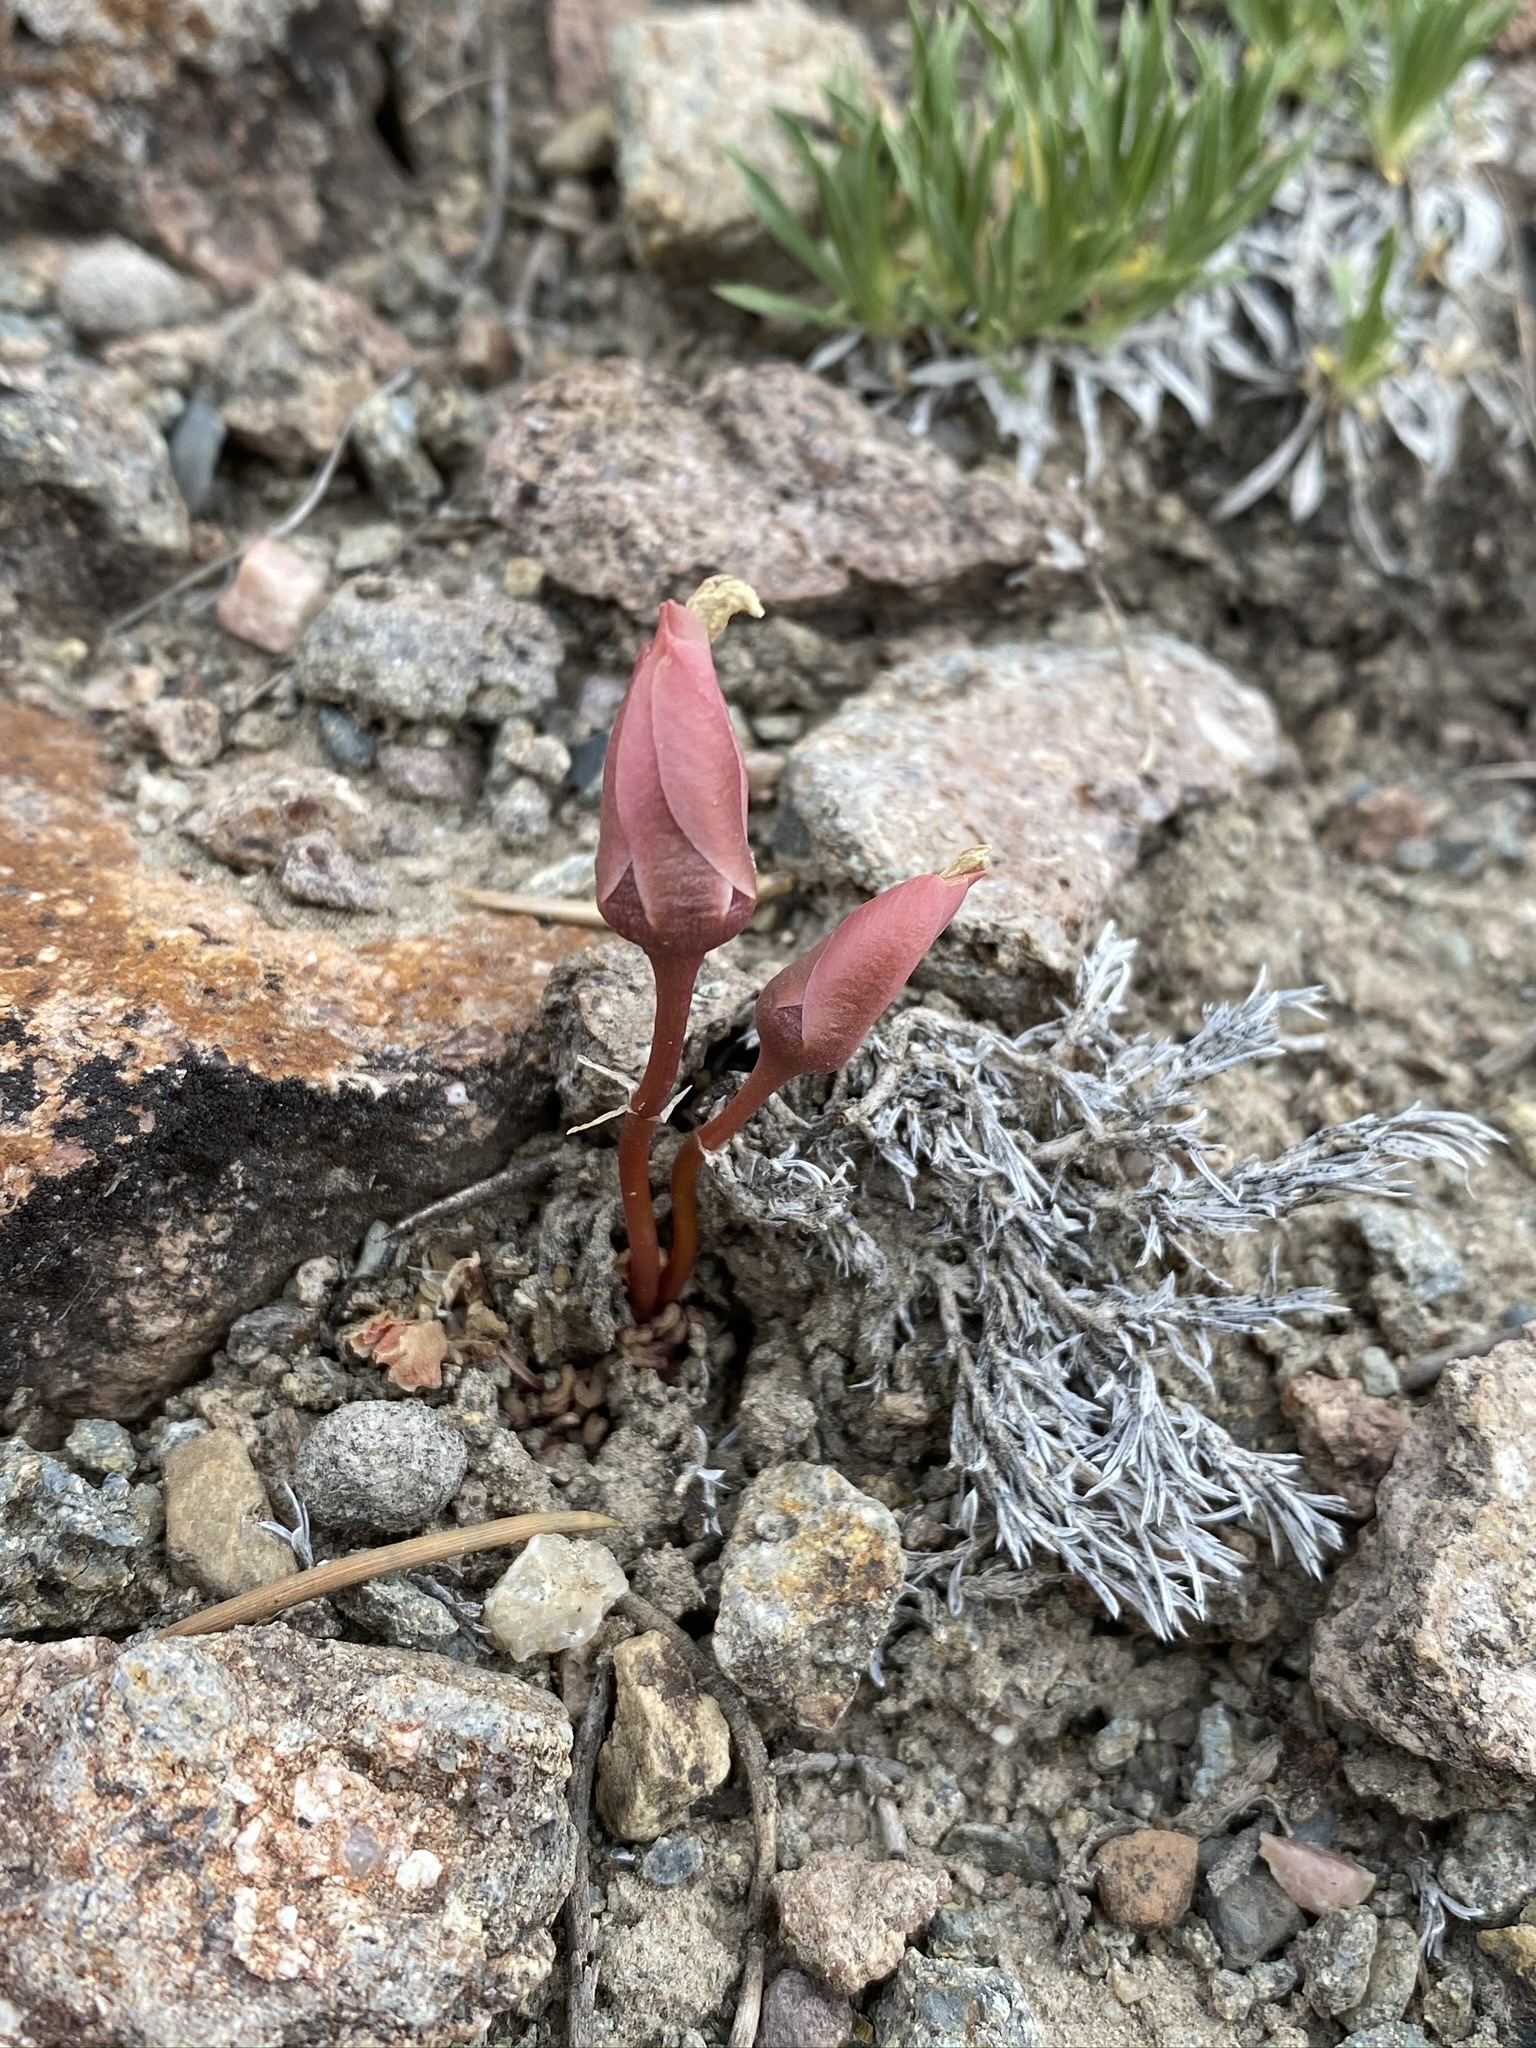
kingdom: Plantae
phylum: Tracheophyta
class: Magnoliopsida
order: Caryophyllales
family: Montiaceae
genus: Lewisia
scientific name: Lewisia rediviva
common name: Bitter-root
